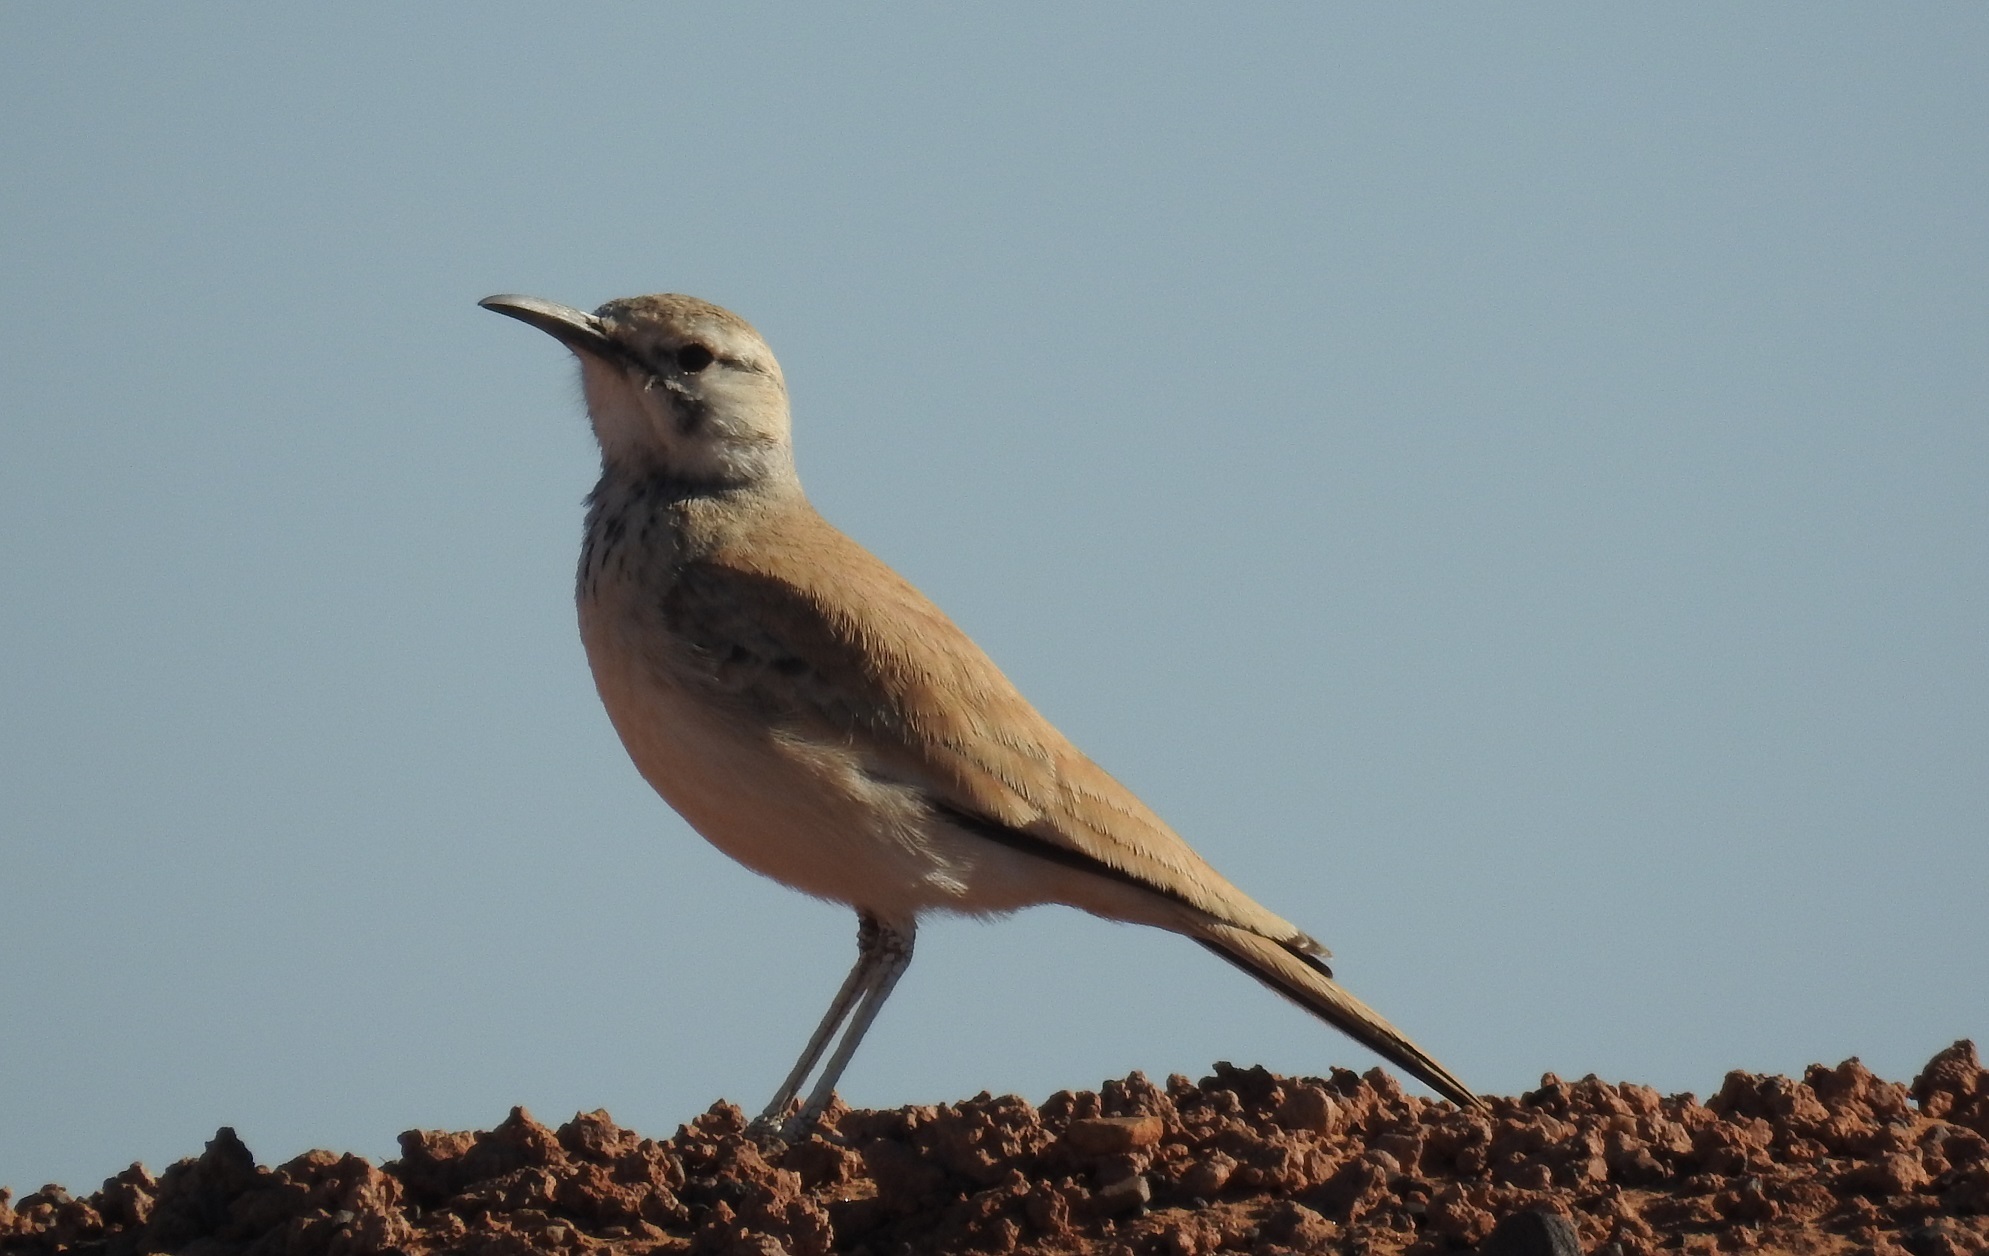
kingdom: Animalia
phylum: Chordata
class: Aves
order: Passeriformes
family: Alaudidae
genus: Alaemon
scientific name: Alaemon alaudipes
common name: Greater hoopoe-lark
